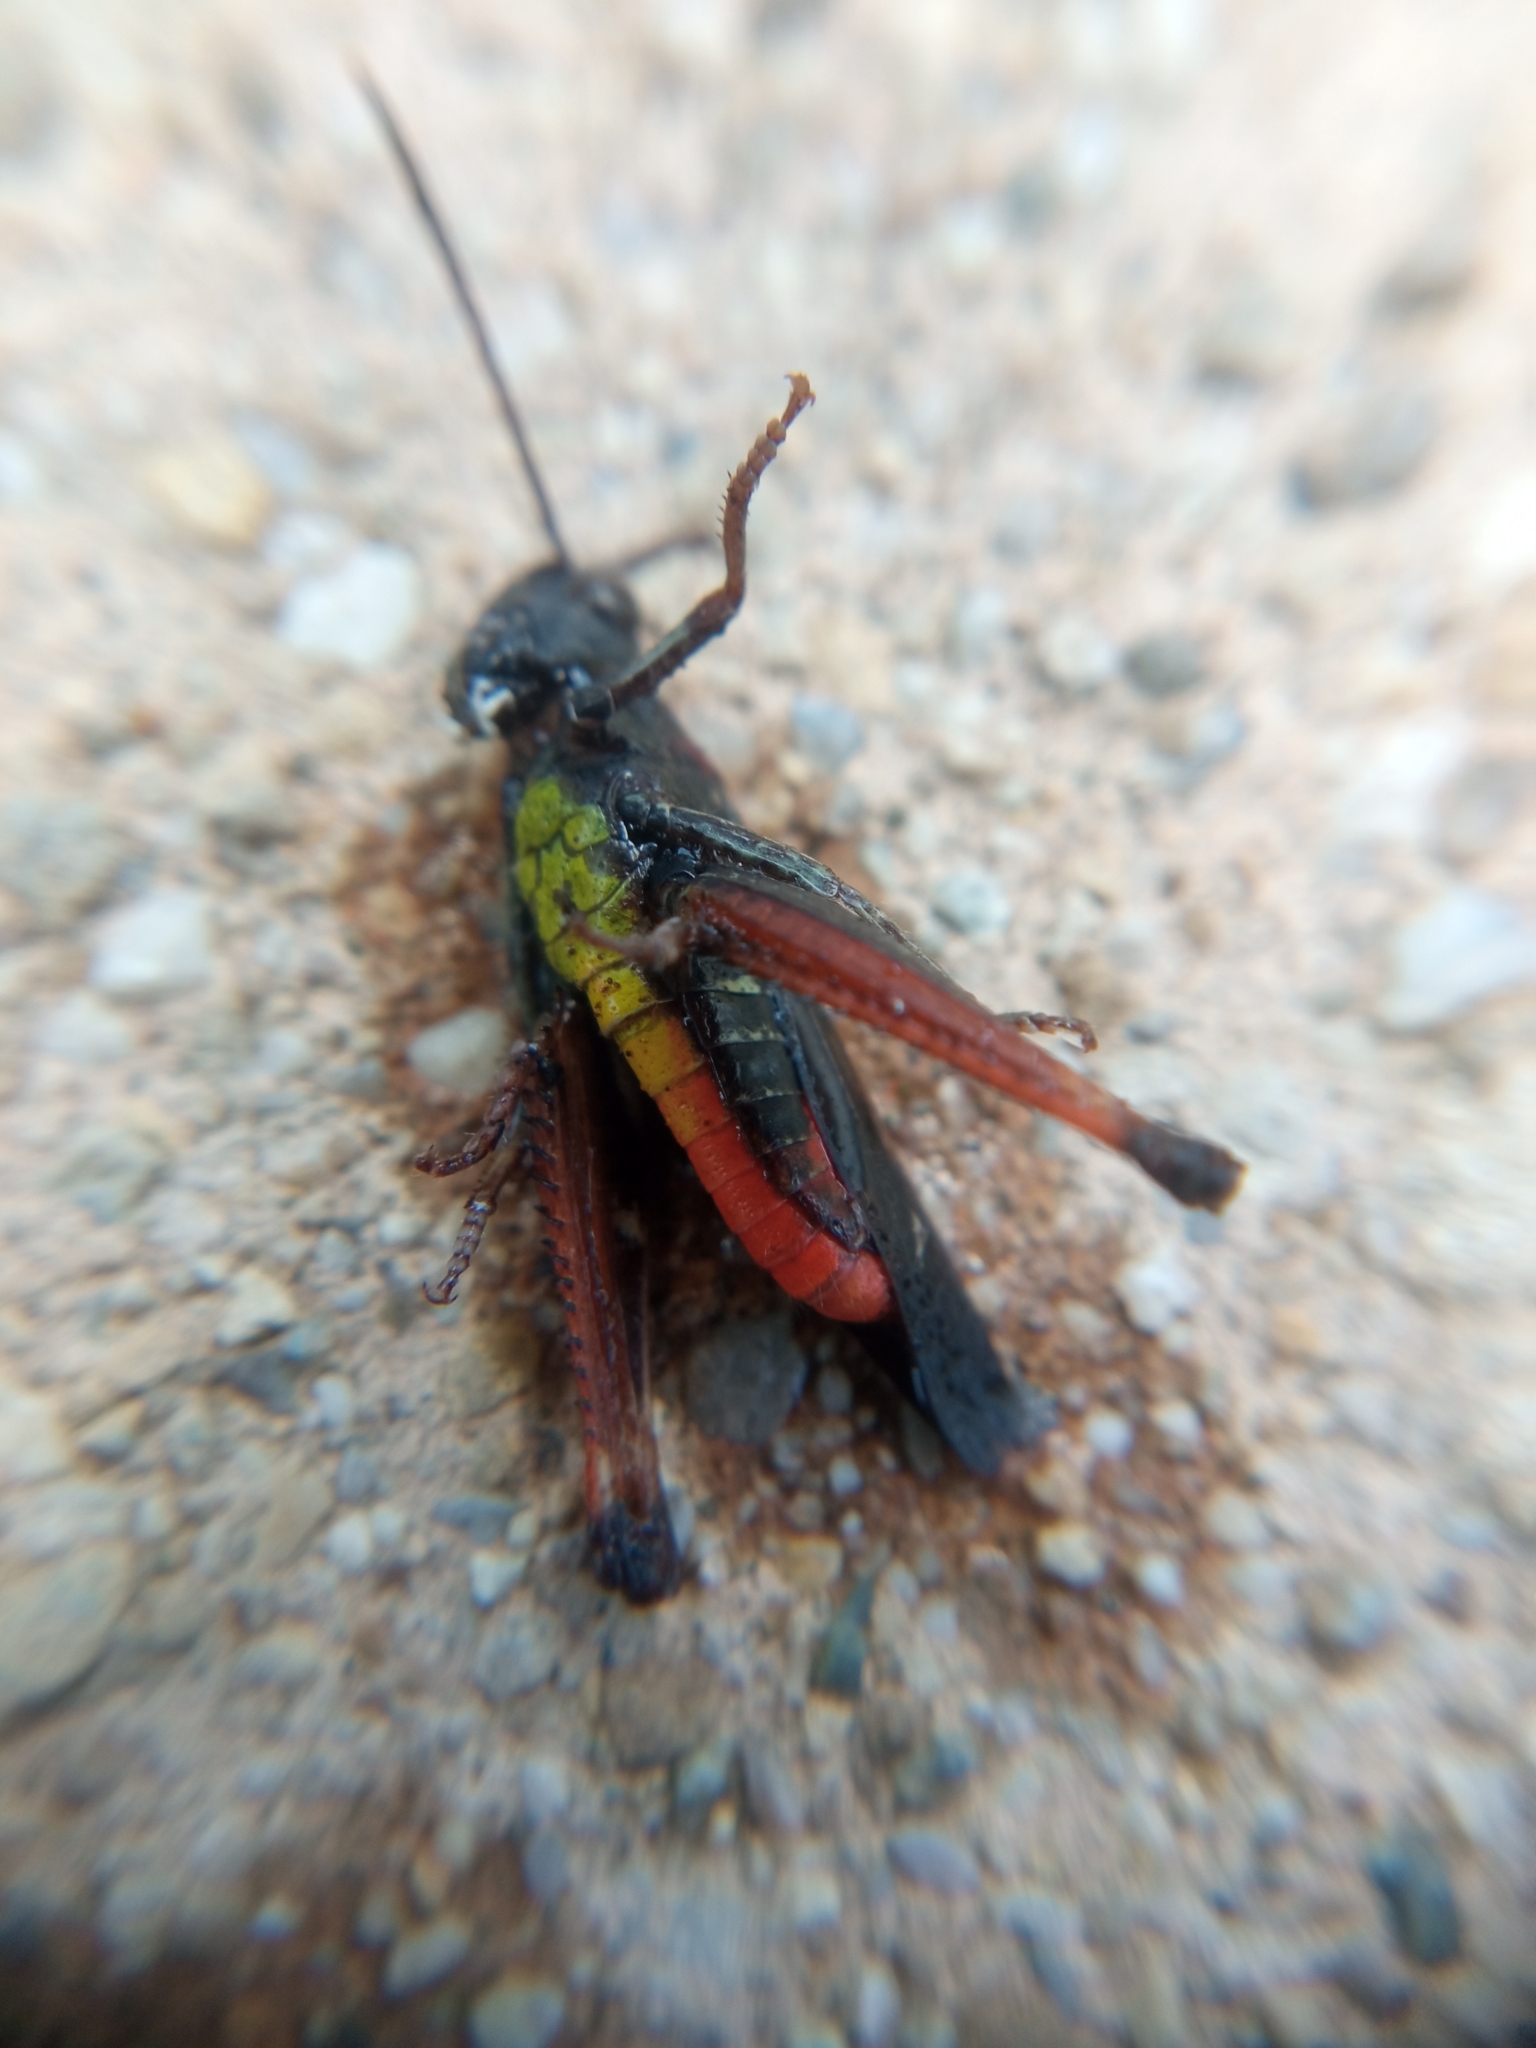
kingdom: Animalia
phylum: Arthropoda
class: Insecta
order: Orthoptera
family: Acrididae
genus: Omocestus
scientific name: Omocestus rufipes
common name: Woodland grasshopper
